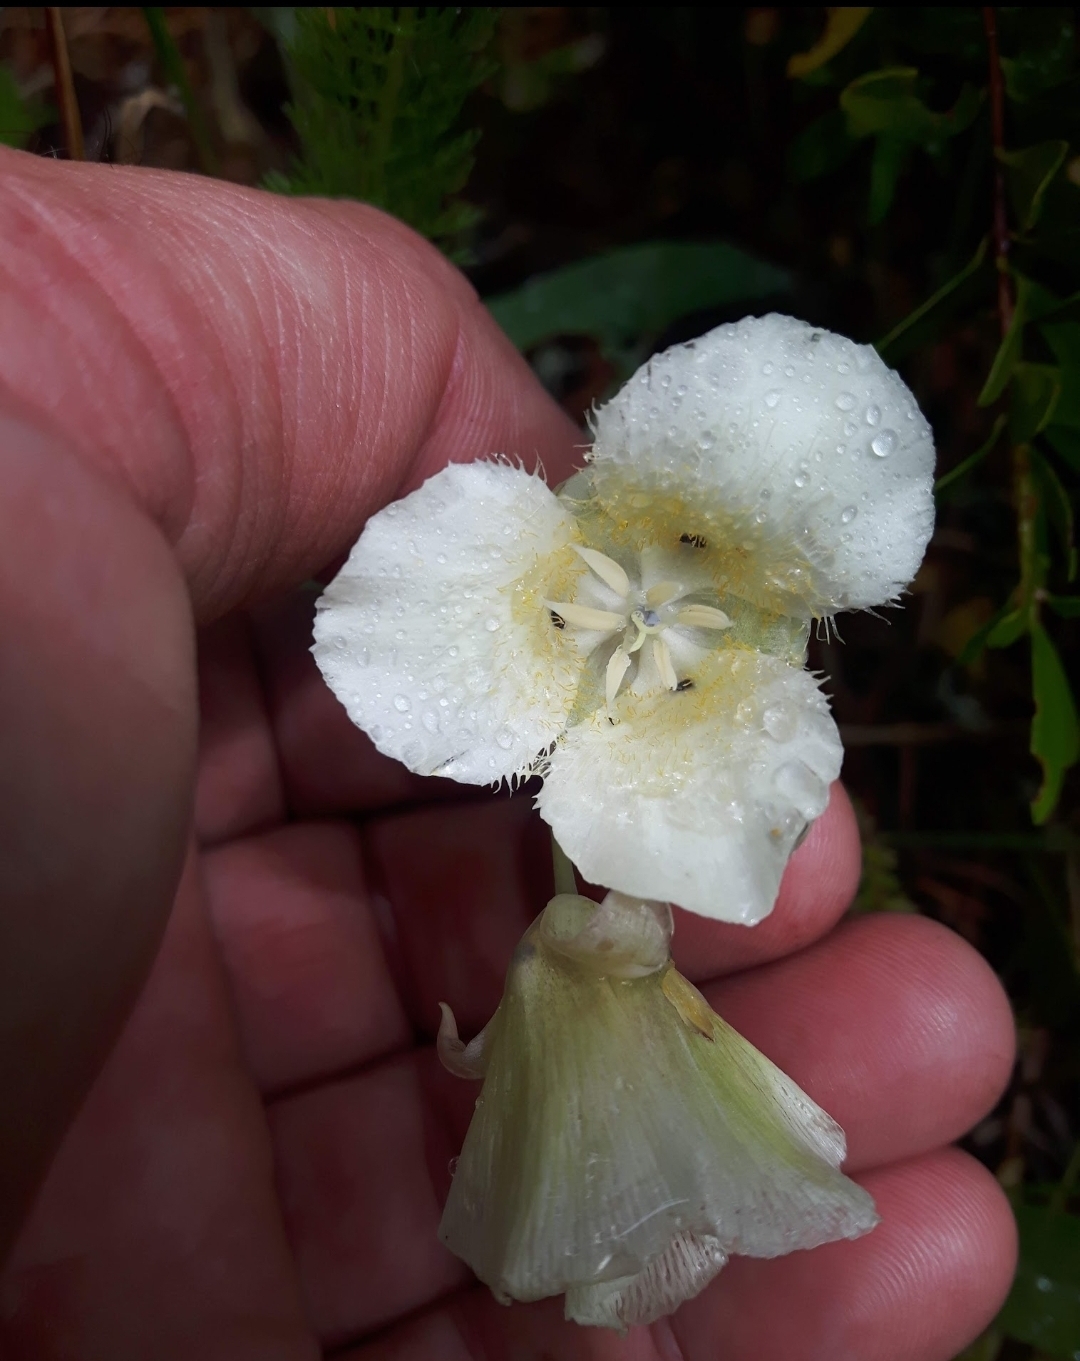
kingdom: Plantae
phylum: Tracheophyta
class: Liliopsida
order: Liliales
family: Liliaceae
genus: Calochortus
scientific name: Calochortus apiculatus
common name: Baker's mariposa lily
